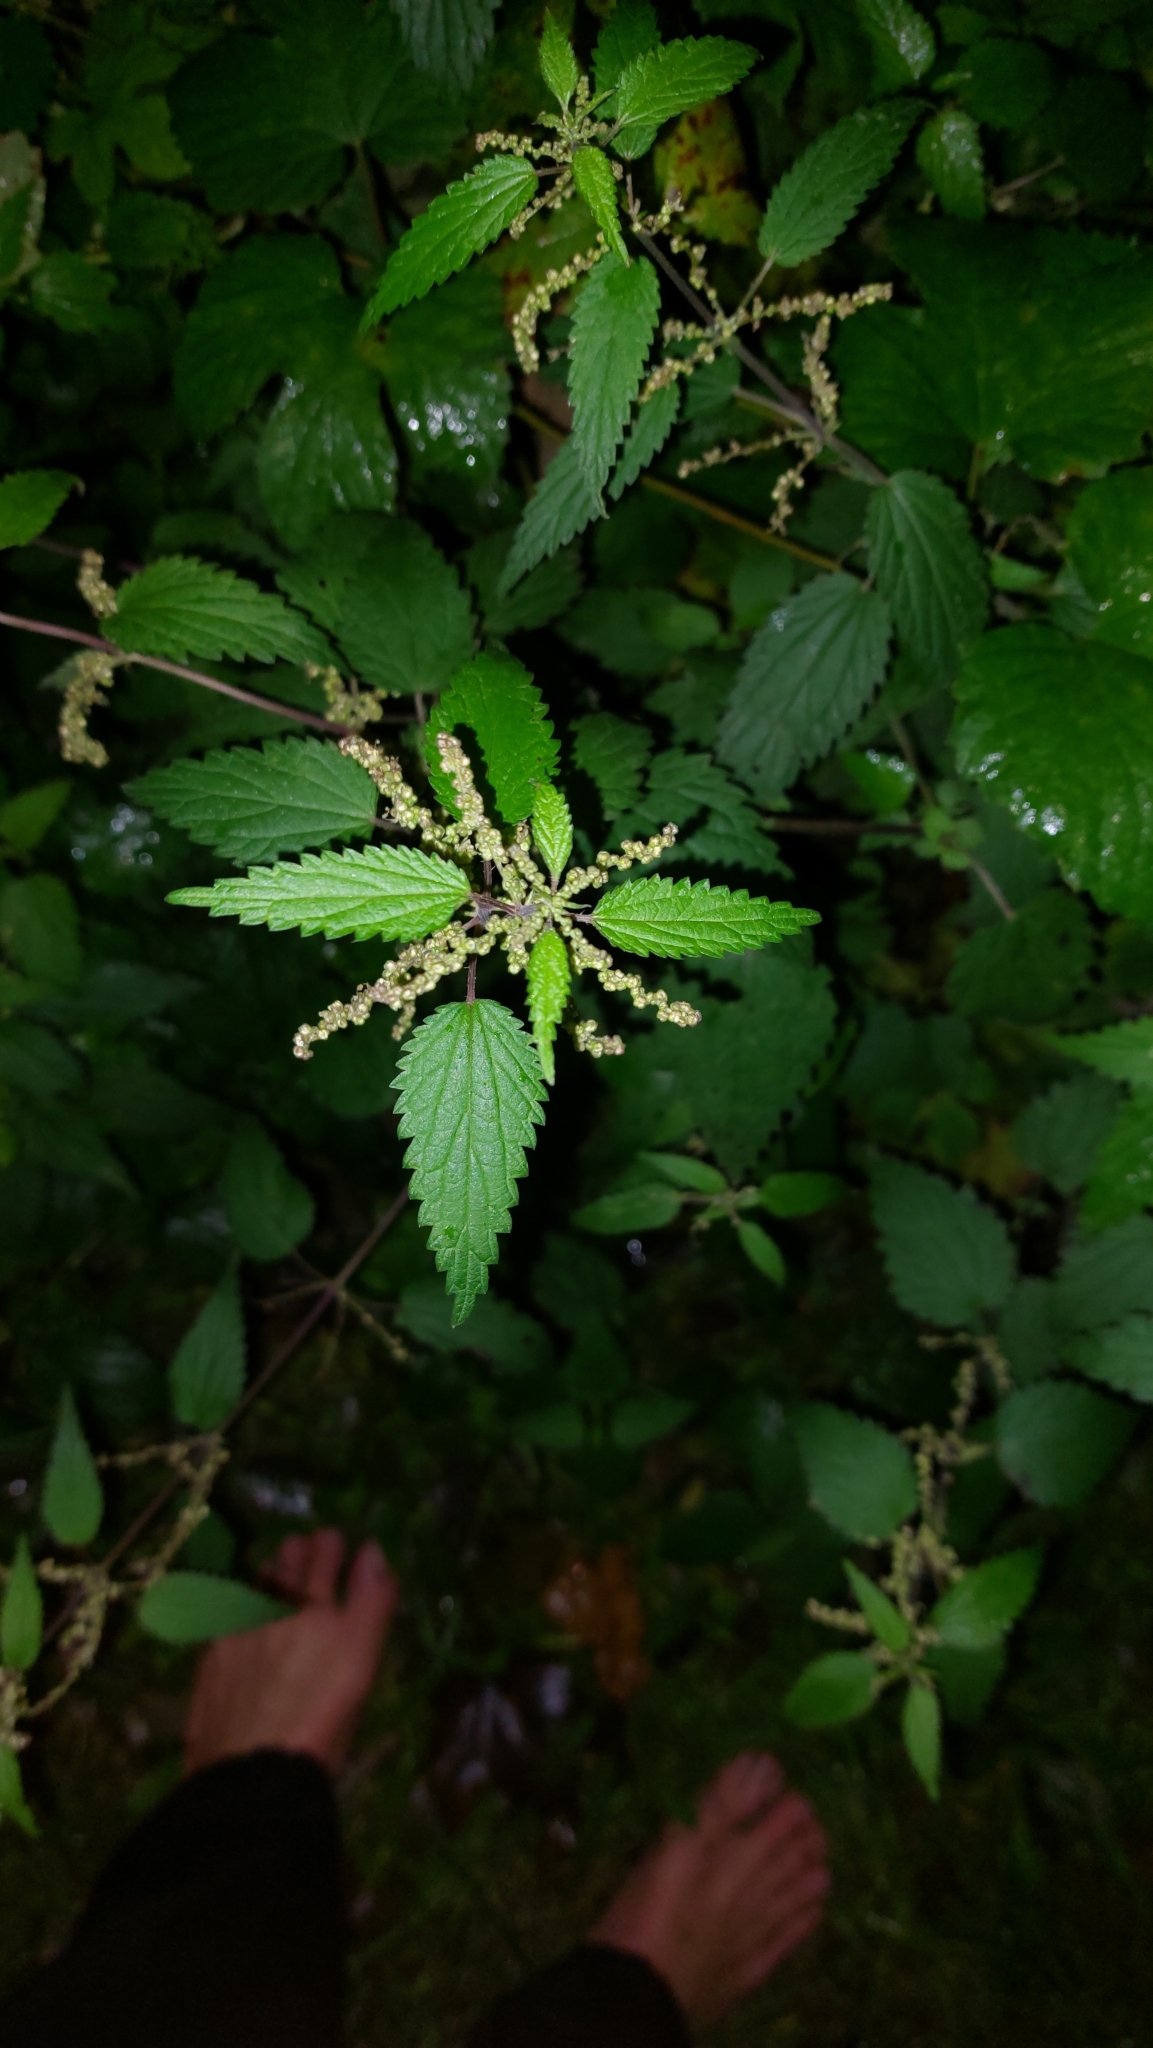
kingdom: Plantae
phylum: Tracheophyta
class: Magnoliopsida
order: Rosales
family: Urticaceae
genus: Urtica
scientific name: Urtica dioica
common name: Common nettle
